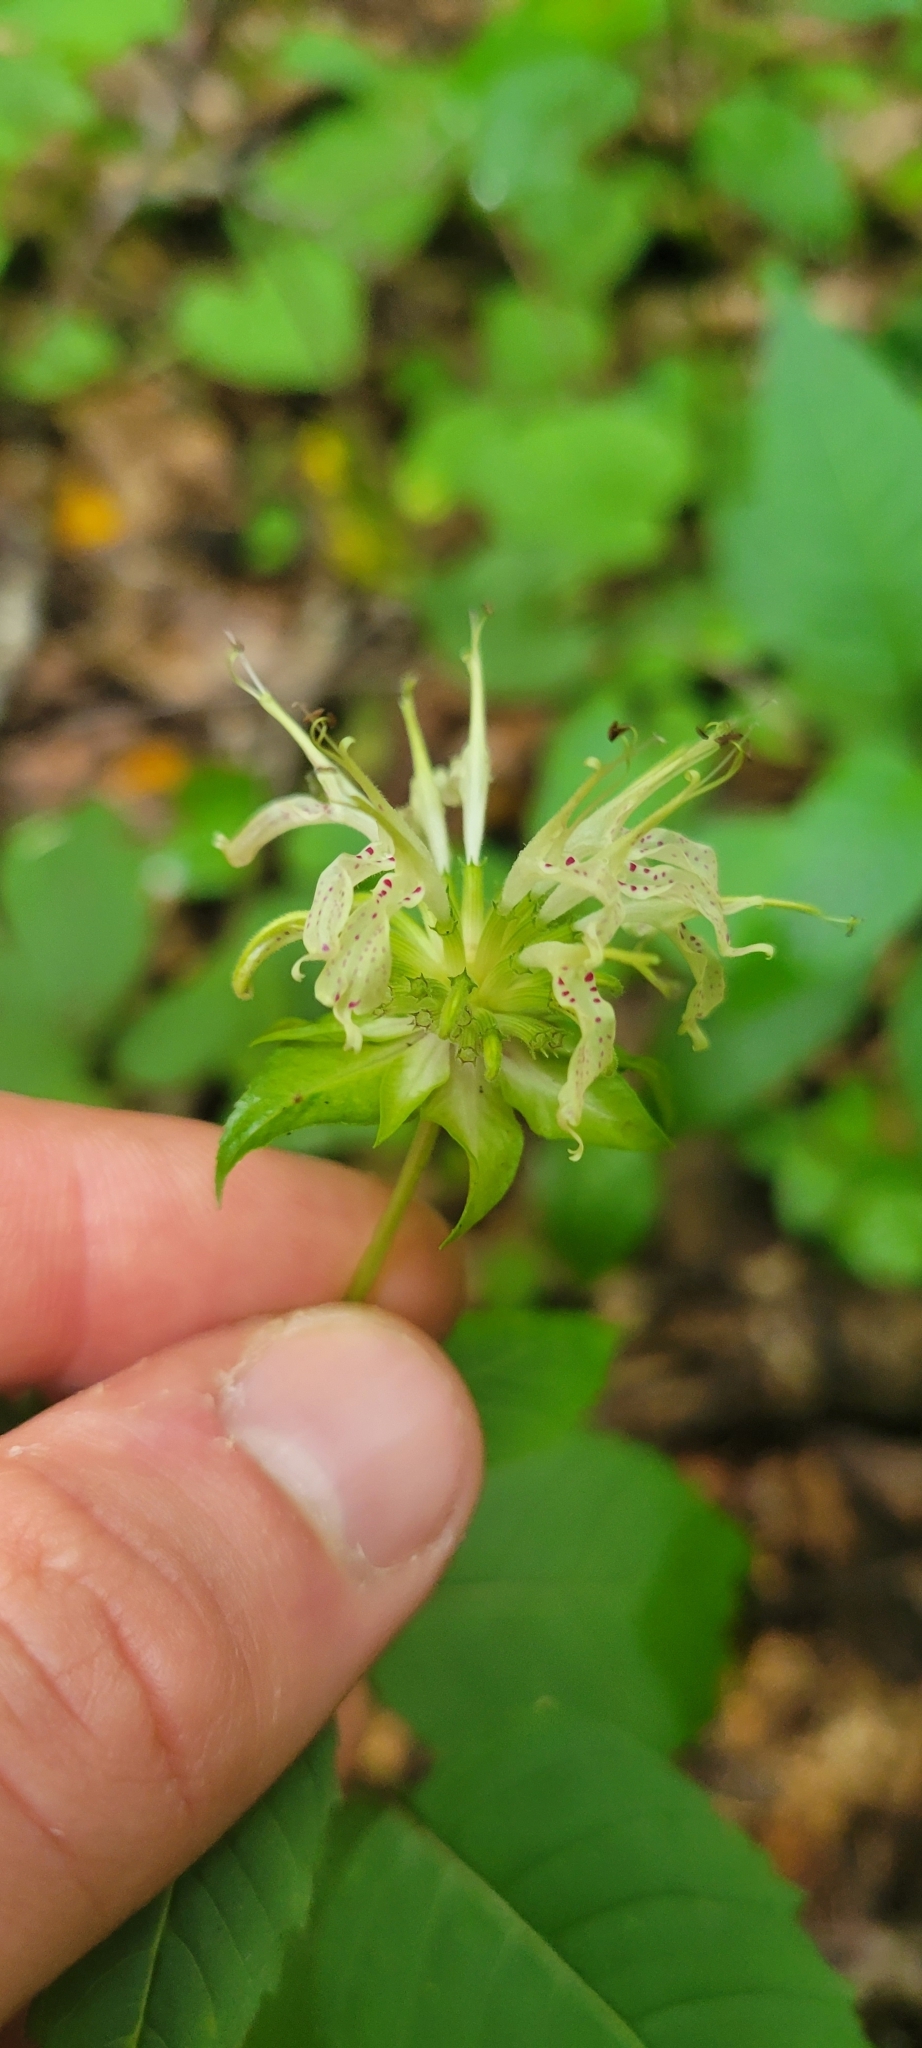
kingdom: Plantae
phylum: Tracheophyta
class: Magnoliopsida
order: Lamiales
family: Lamiaceae
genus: Monarda
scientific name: Monarda clinopodia
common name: Basil beebalm
